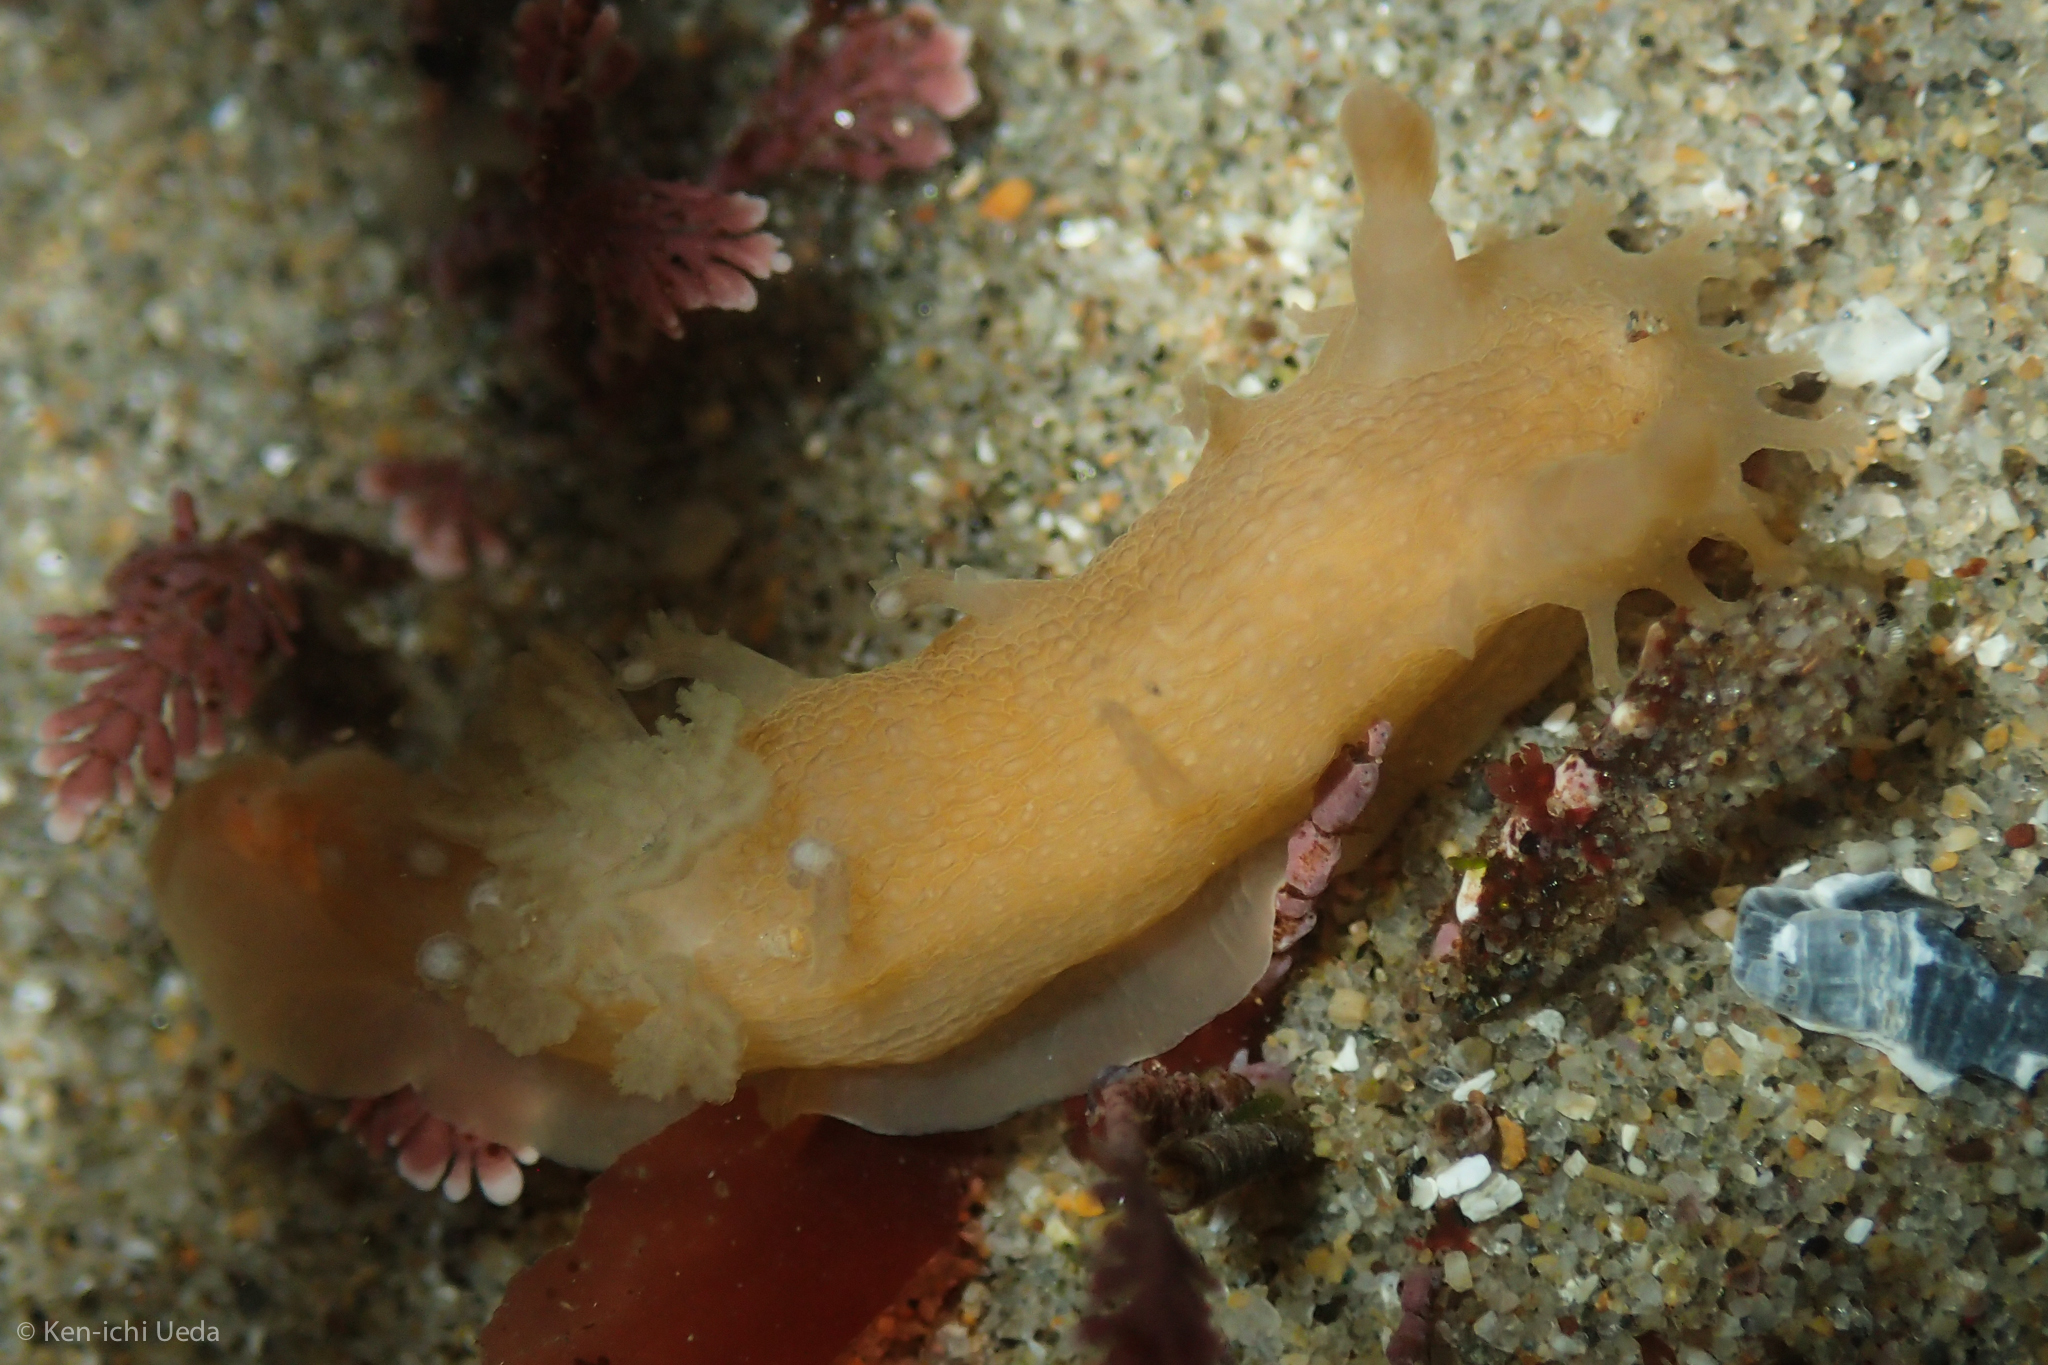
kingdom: Animalia
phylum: Mollusca
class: Gastropoda
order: Nudibranchia
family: Polyceridae
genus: Triopha
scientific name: Triopha maculata
